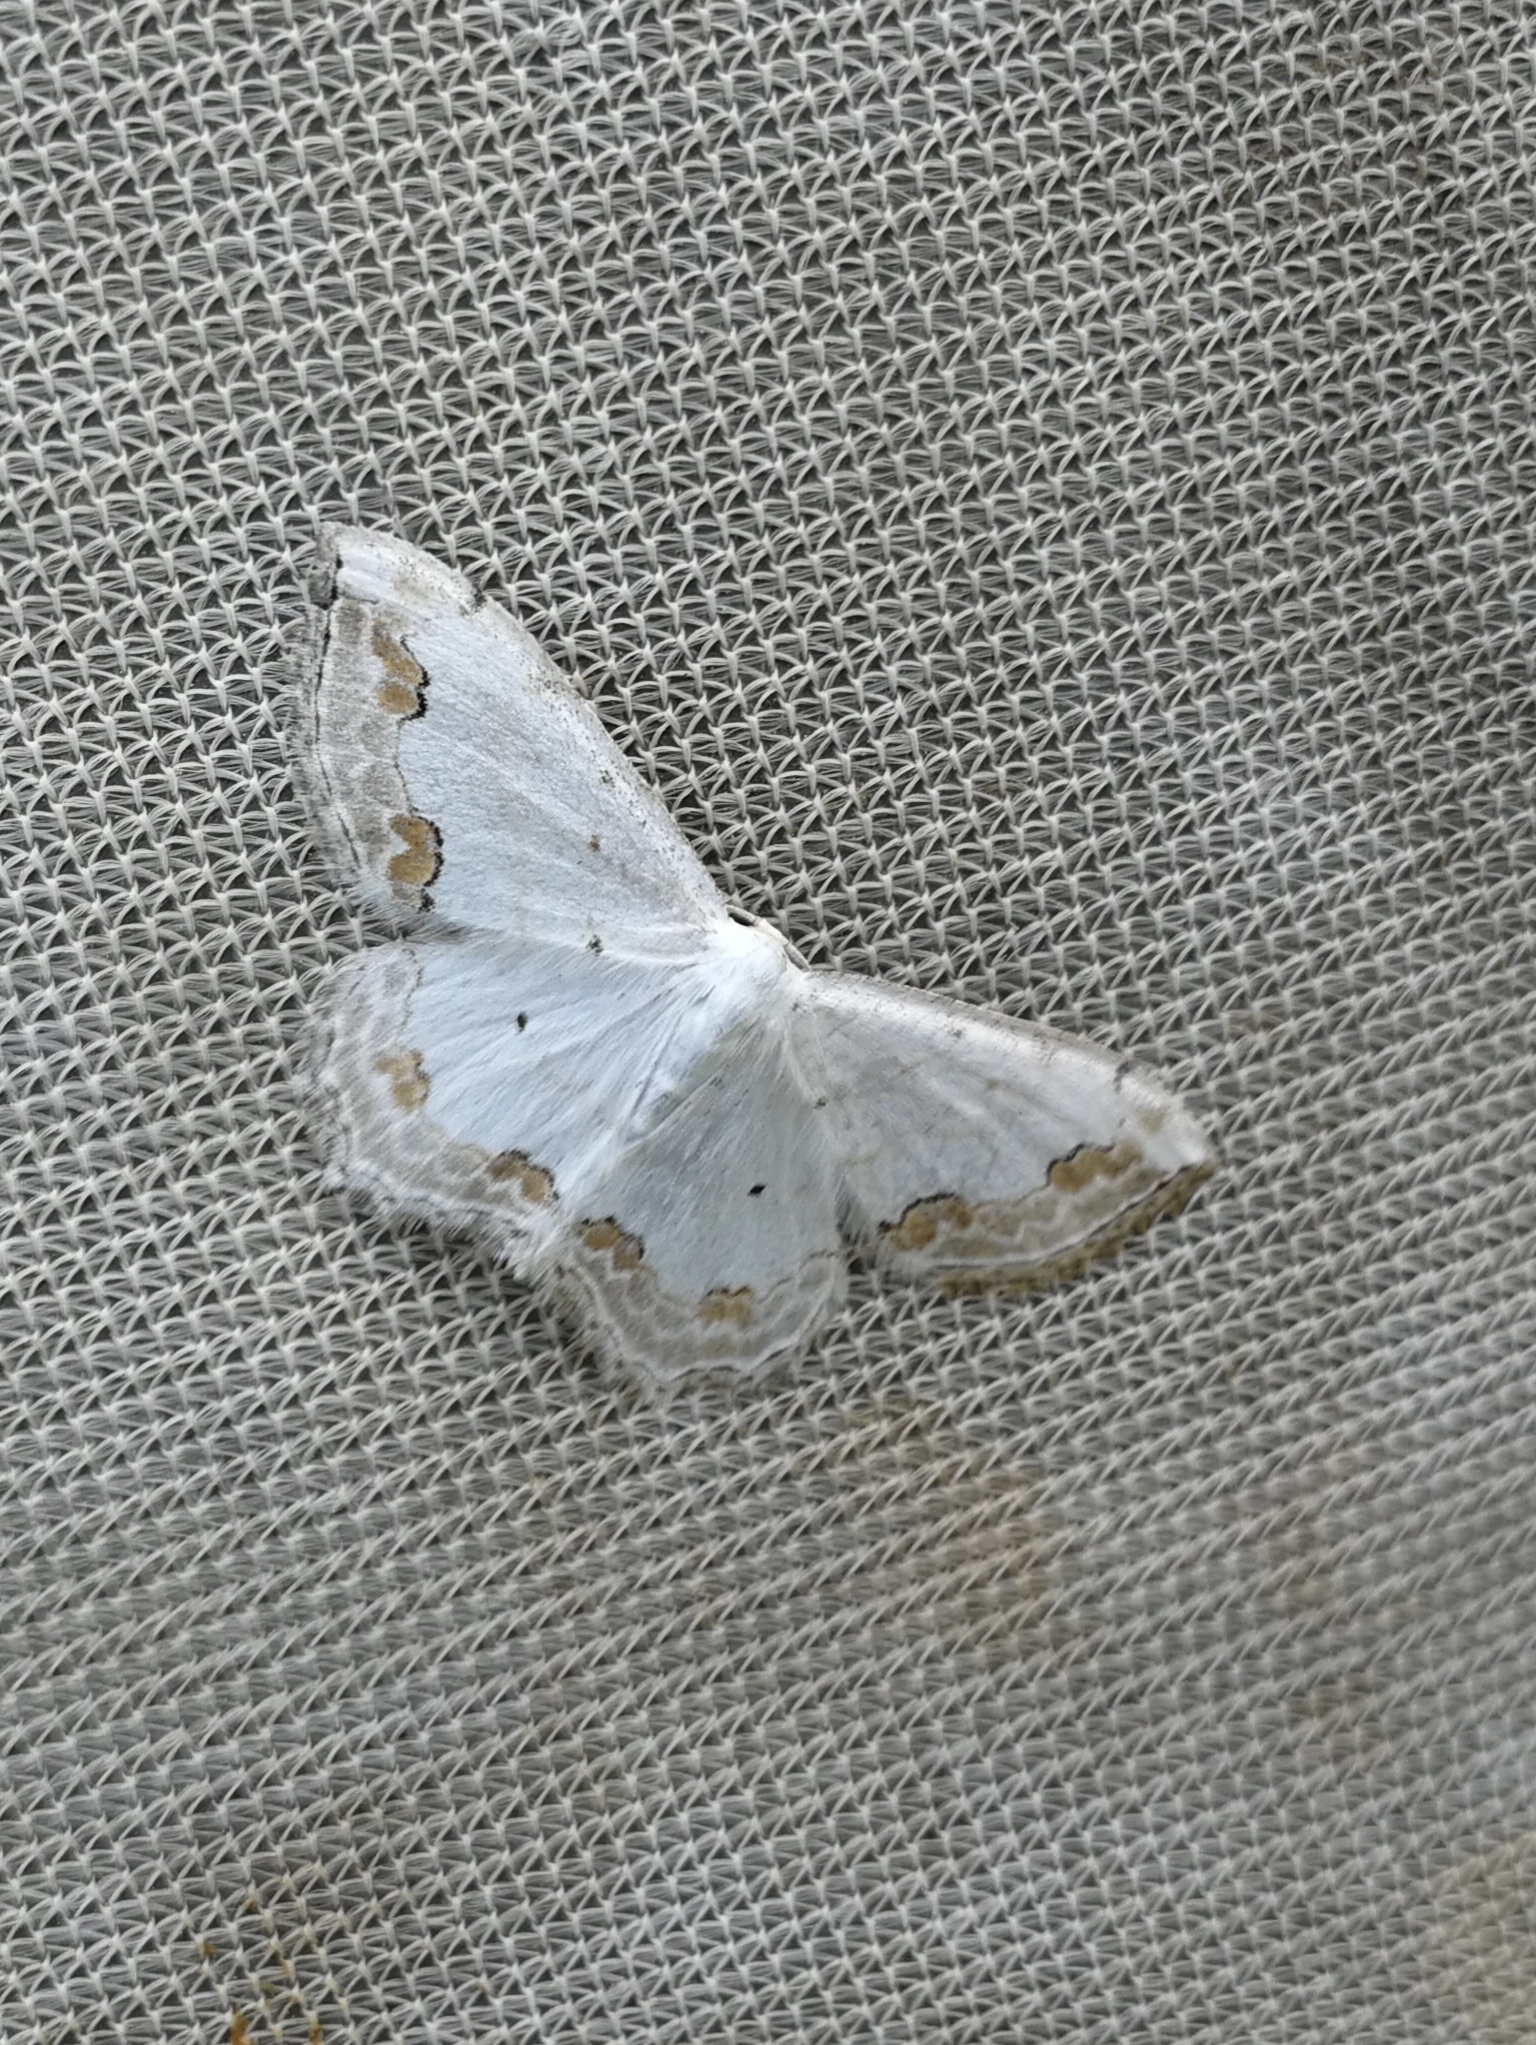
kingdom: Animalia
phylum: Arthropoda
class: Insecta
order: Lepidoptera
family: Geometridae
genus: Scopula
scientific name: Scopula ornata
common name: Lace border
